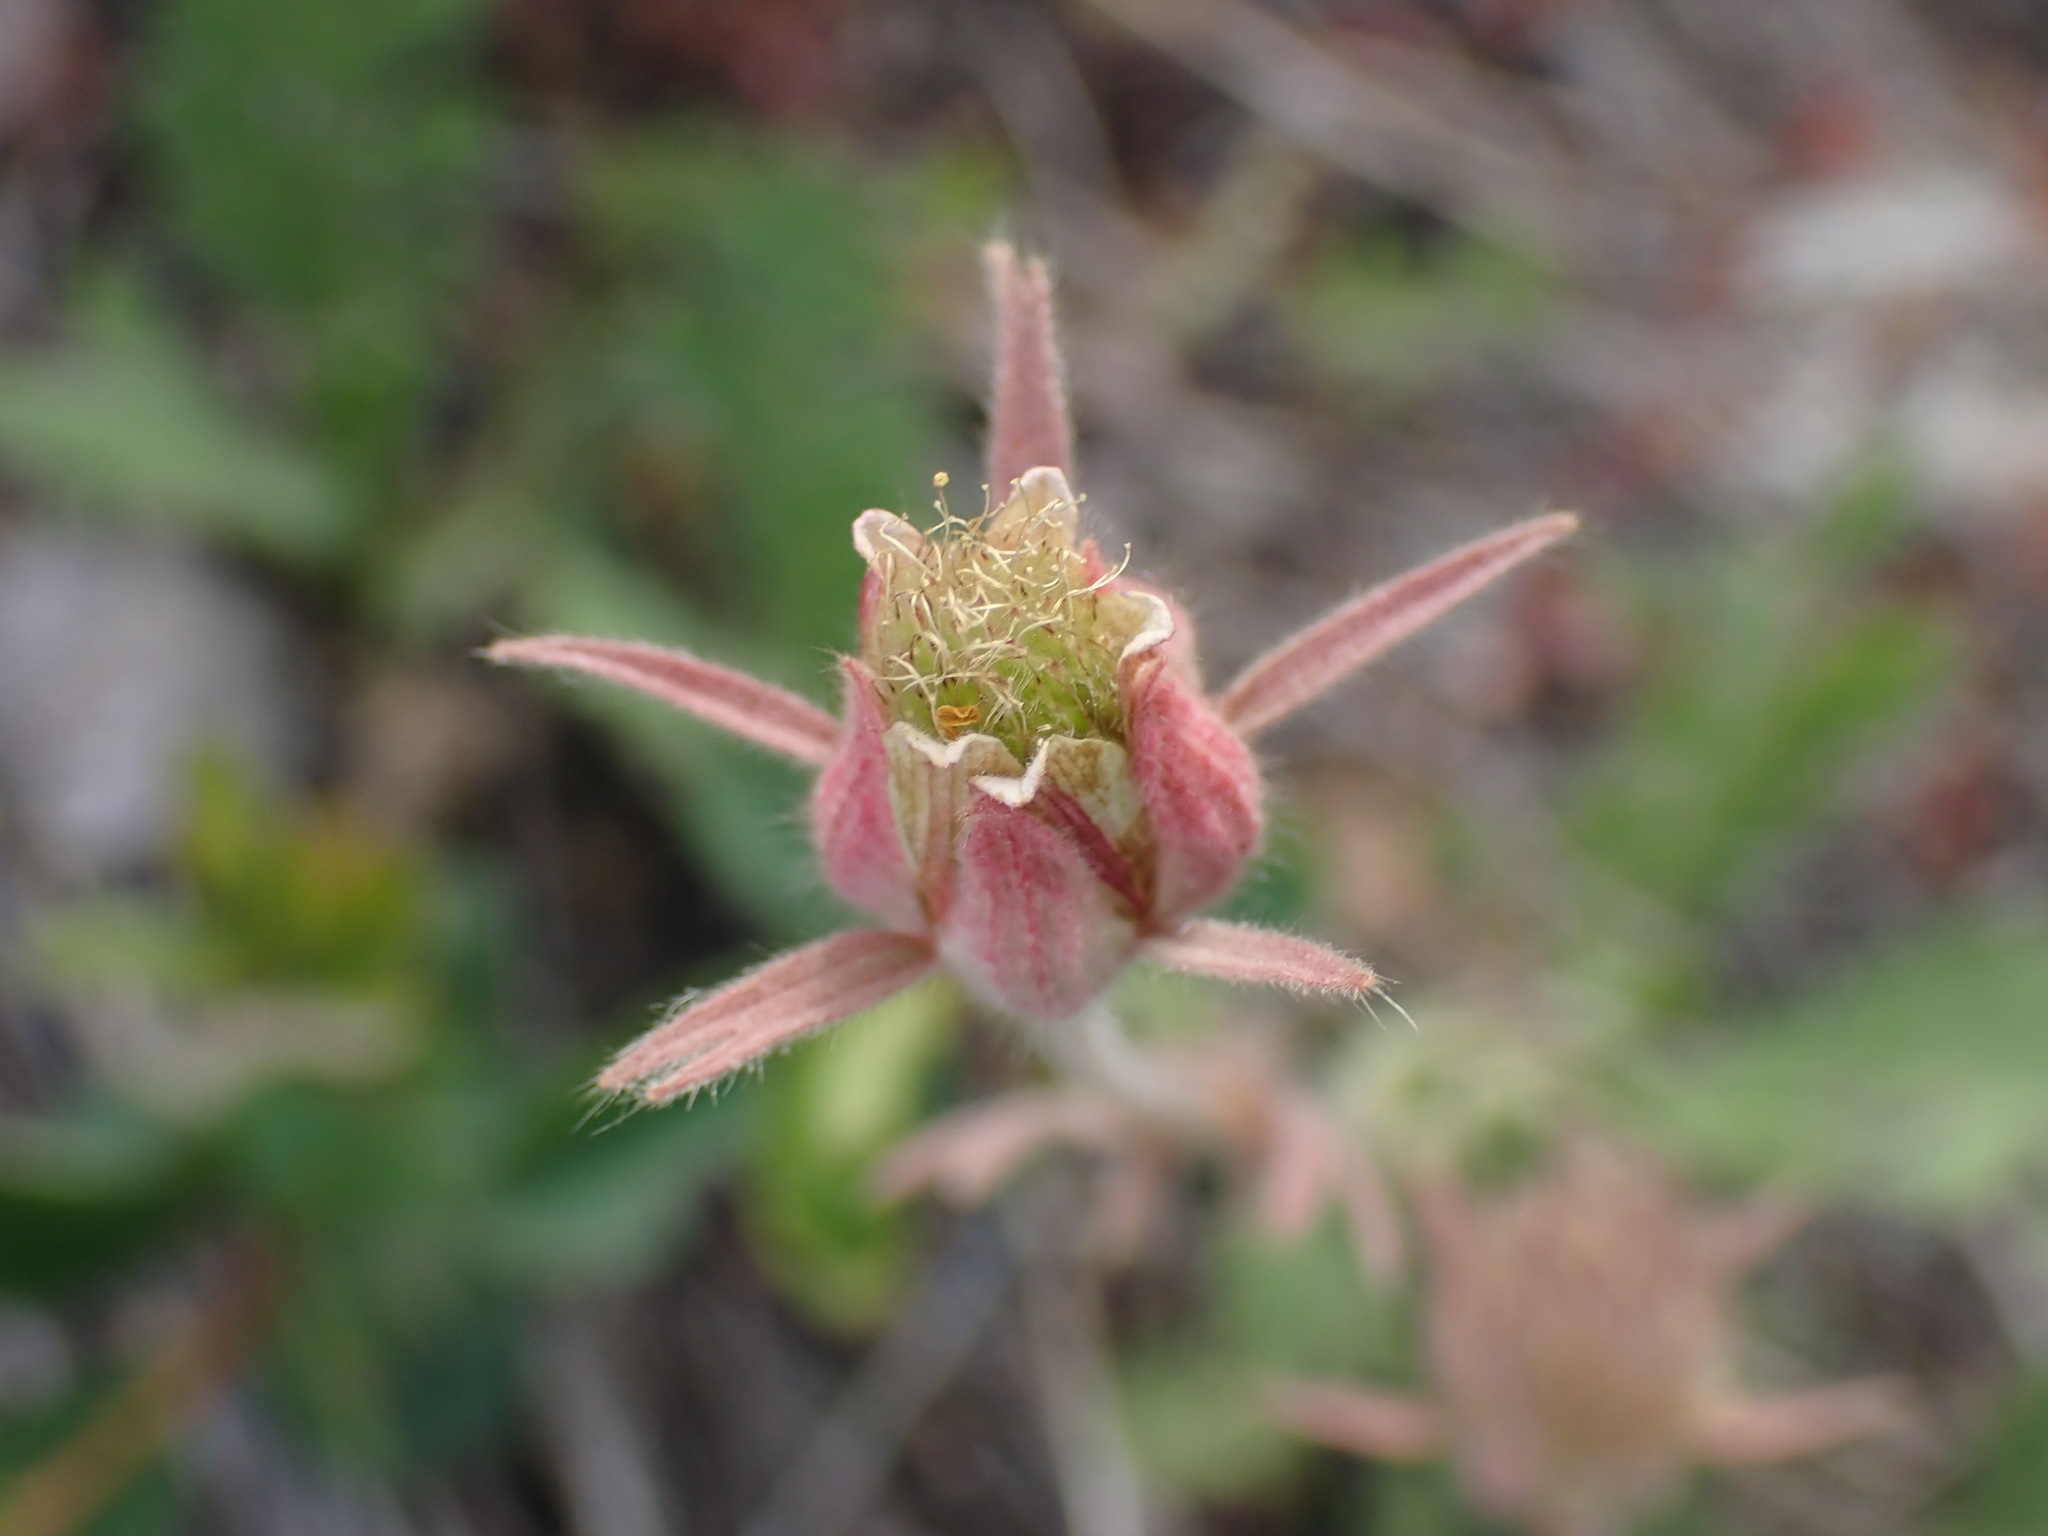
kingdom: Plantae
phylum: Tracheophyta
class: Magnoliopsida
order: Rosales
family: Rosaceae
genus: Geum
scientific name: Geum triflorum
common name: Old man's whiskers
